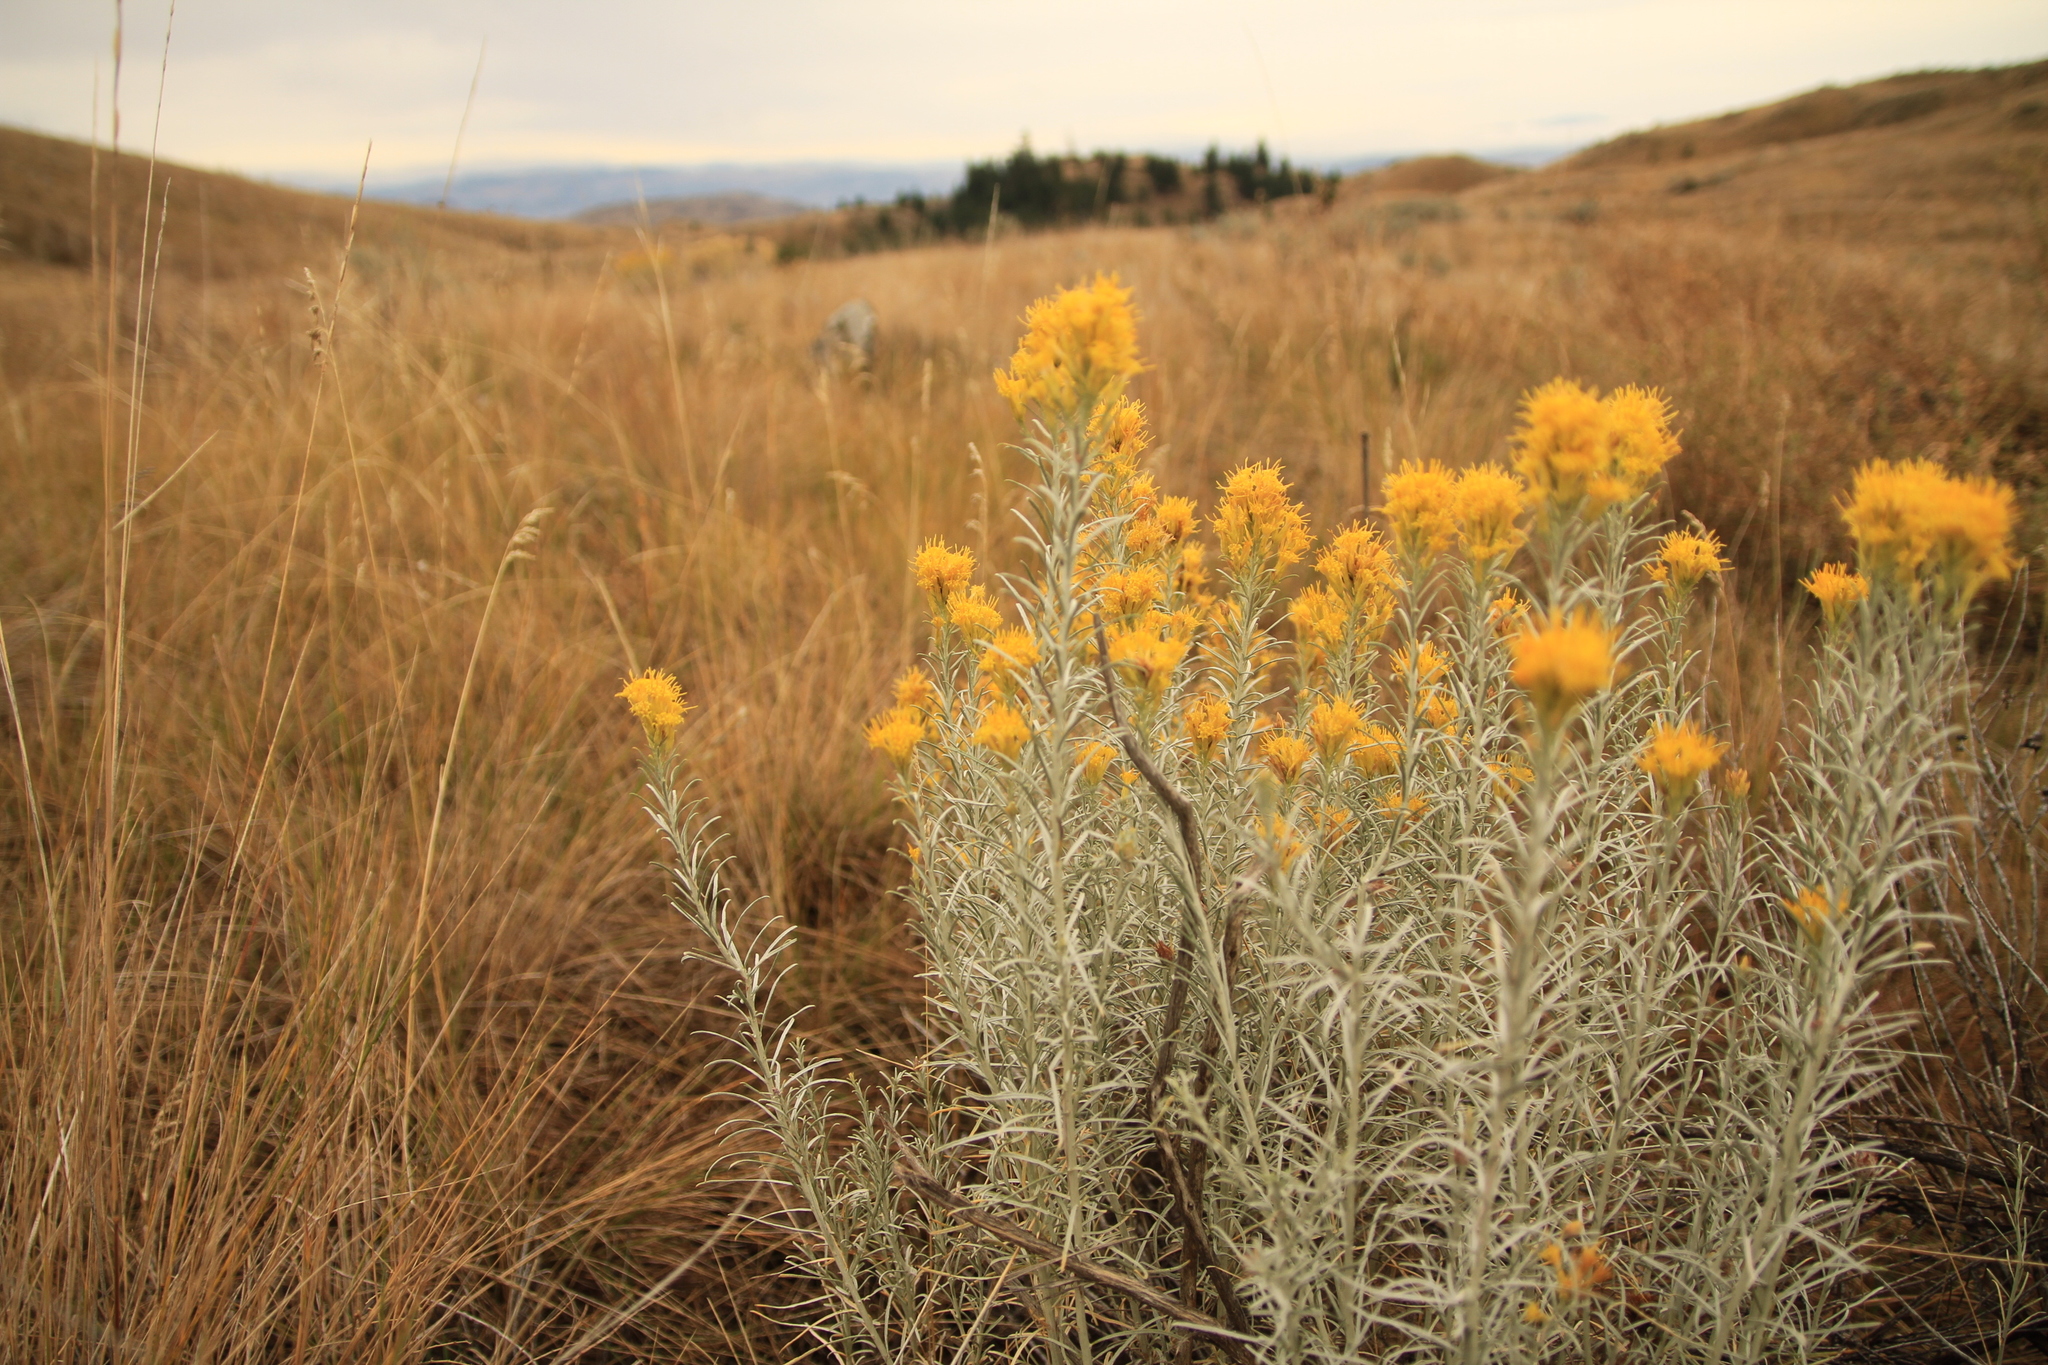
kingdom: Plantae
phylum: Tracheophyta
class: Magnoliopsida
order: Asterales
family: Asteraceae
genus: Ericameria
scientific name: Ericameria nauseosa
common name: Rubber rabbitbrush
